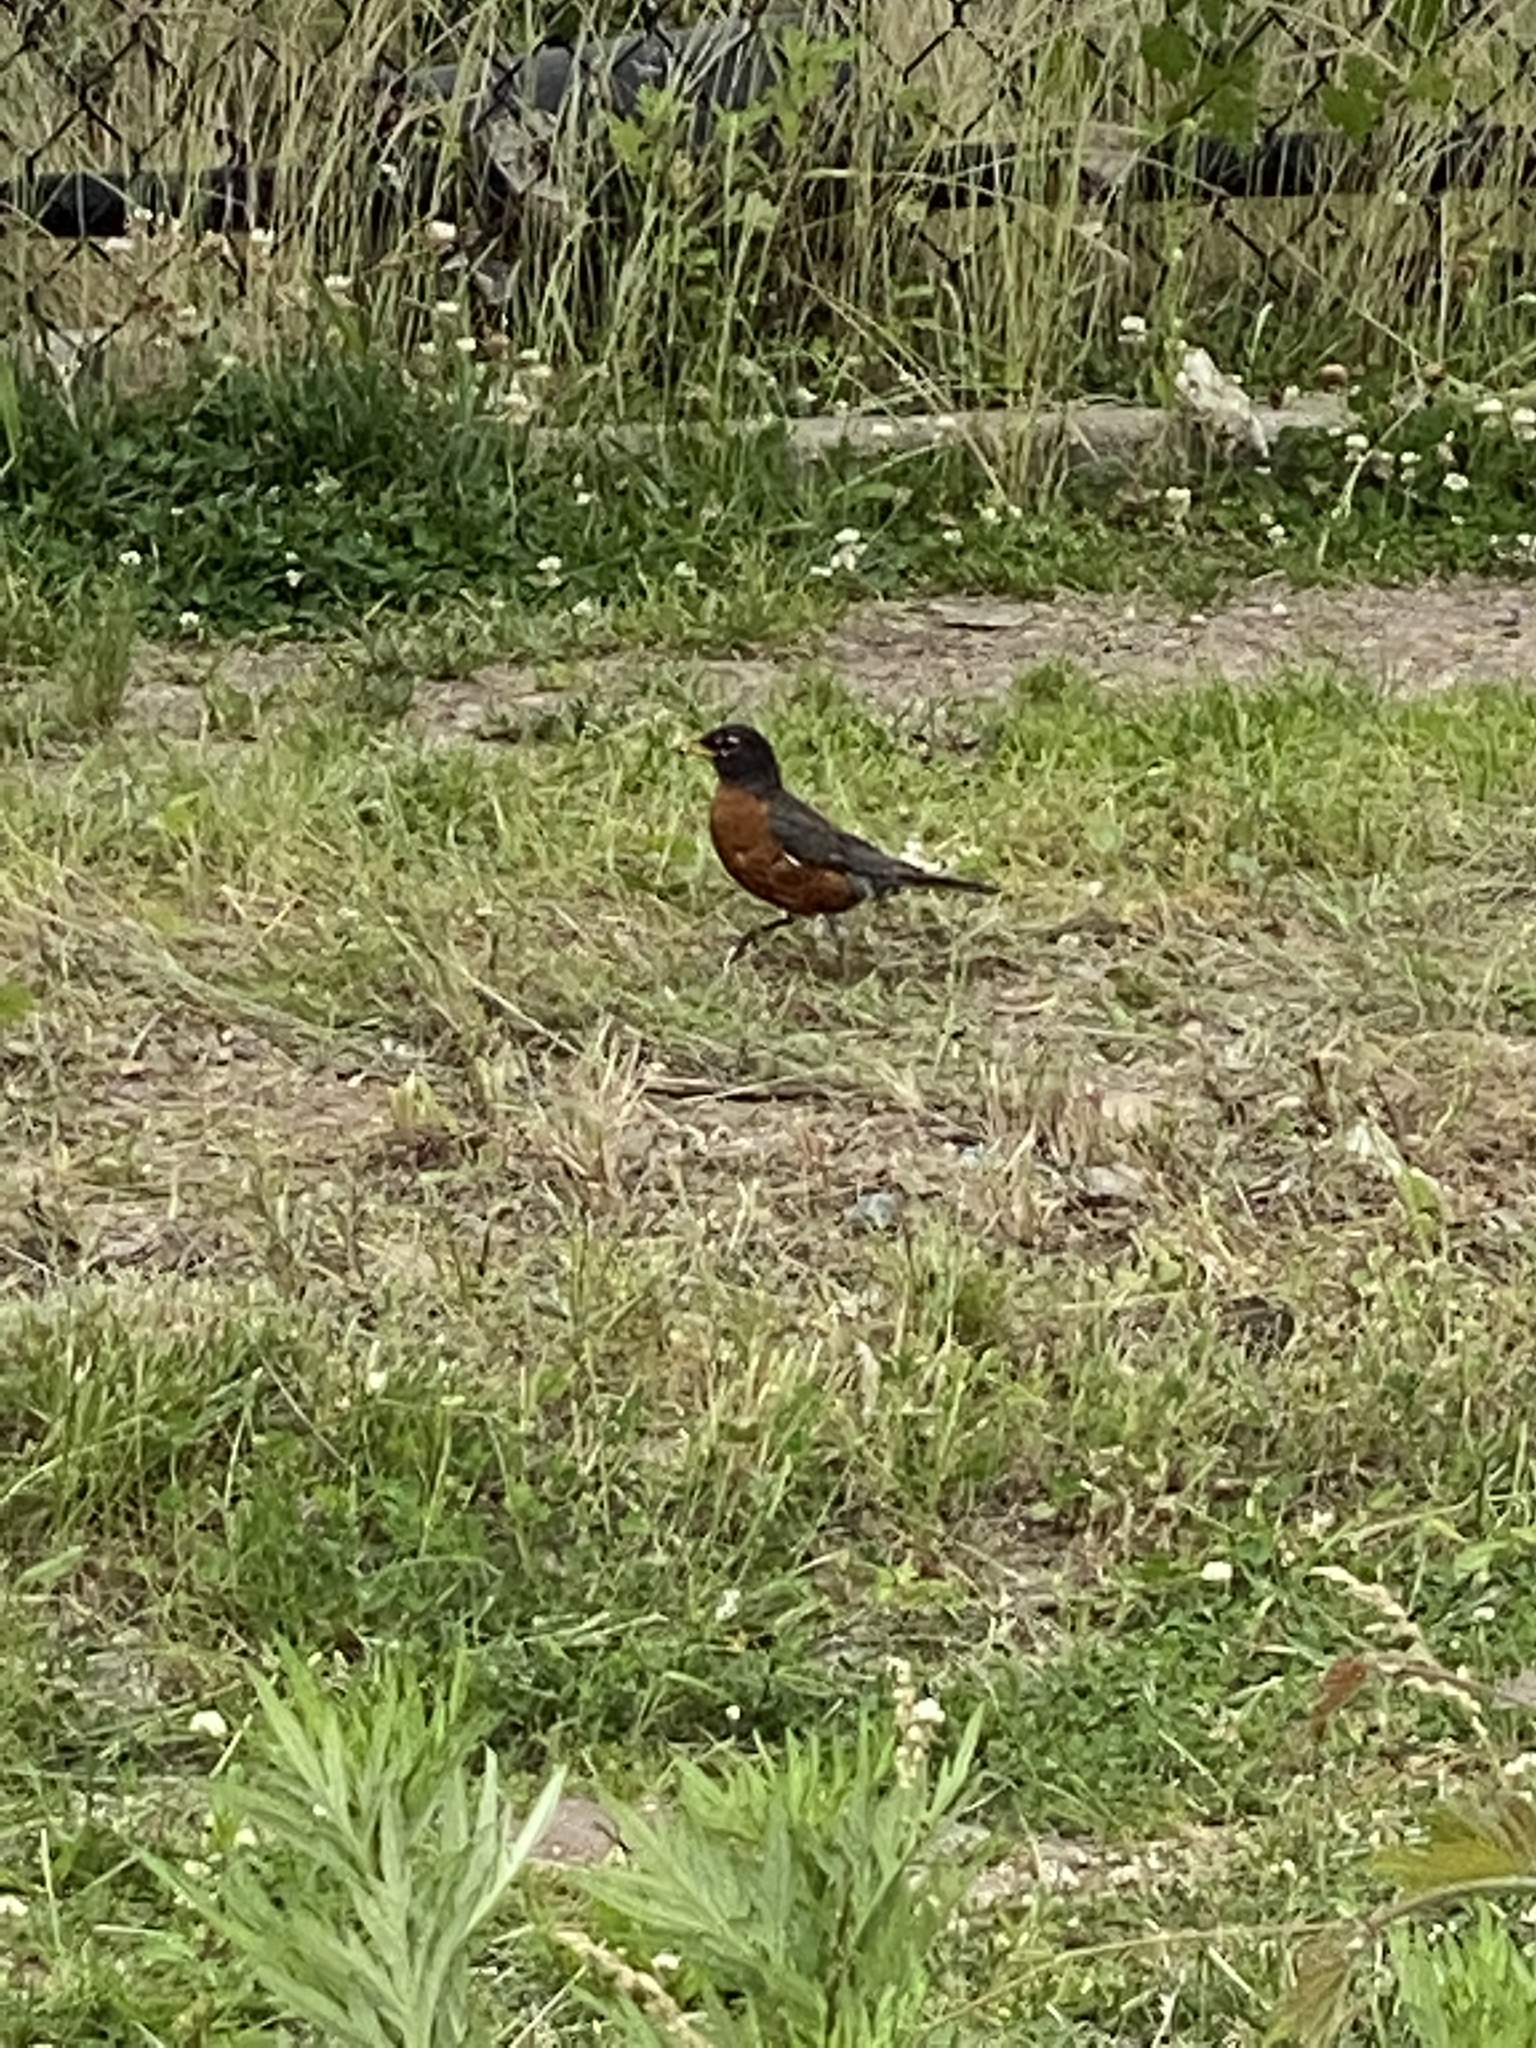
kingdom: Animalia
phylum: Chordata
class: Aves
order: Passeriformes
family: Turdidae
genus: Turdus
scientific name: Turdus migratorius
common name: American robin
